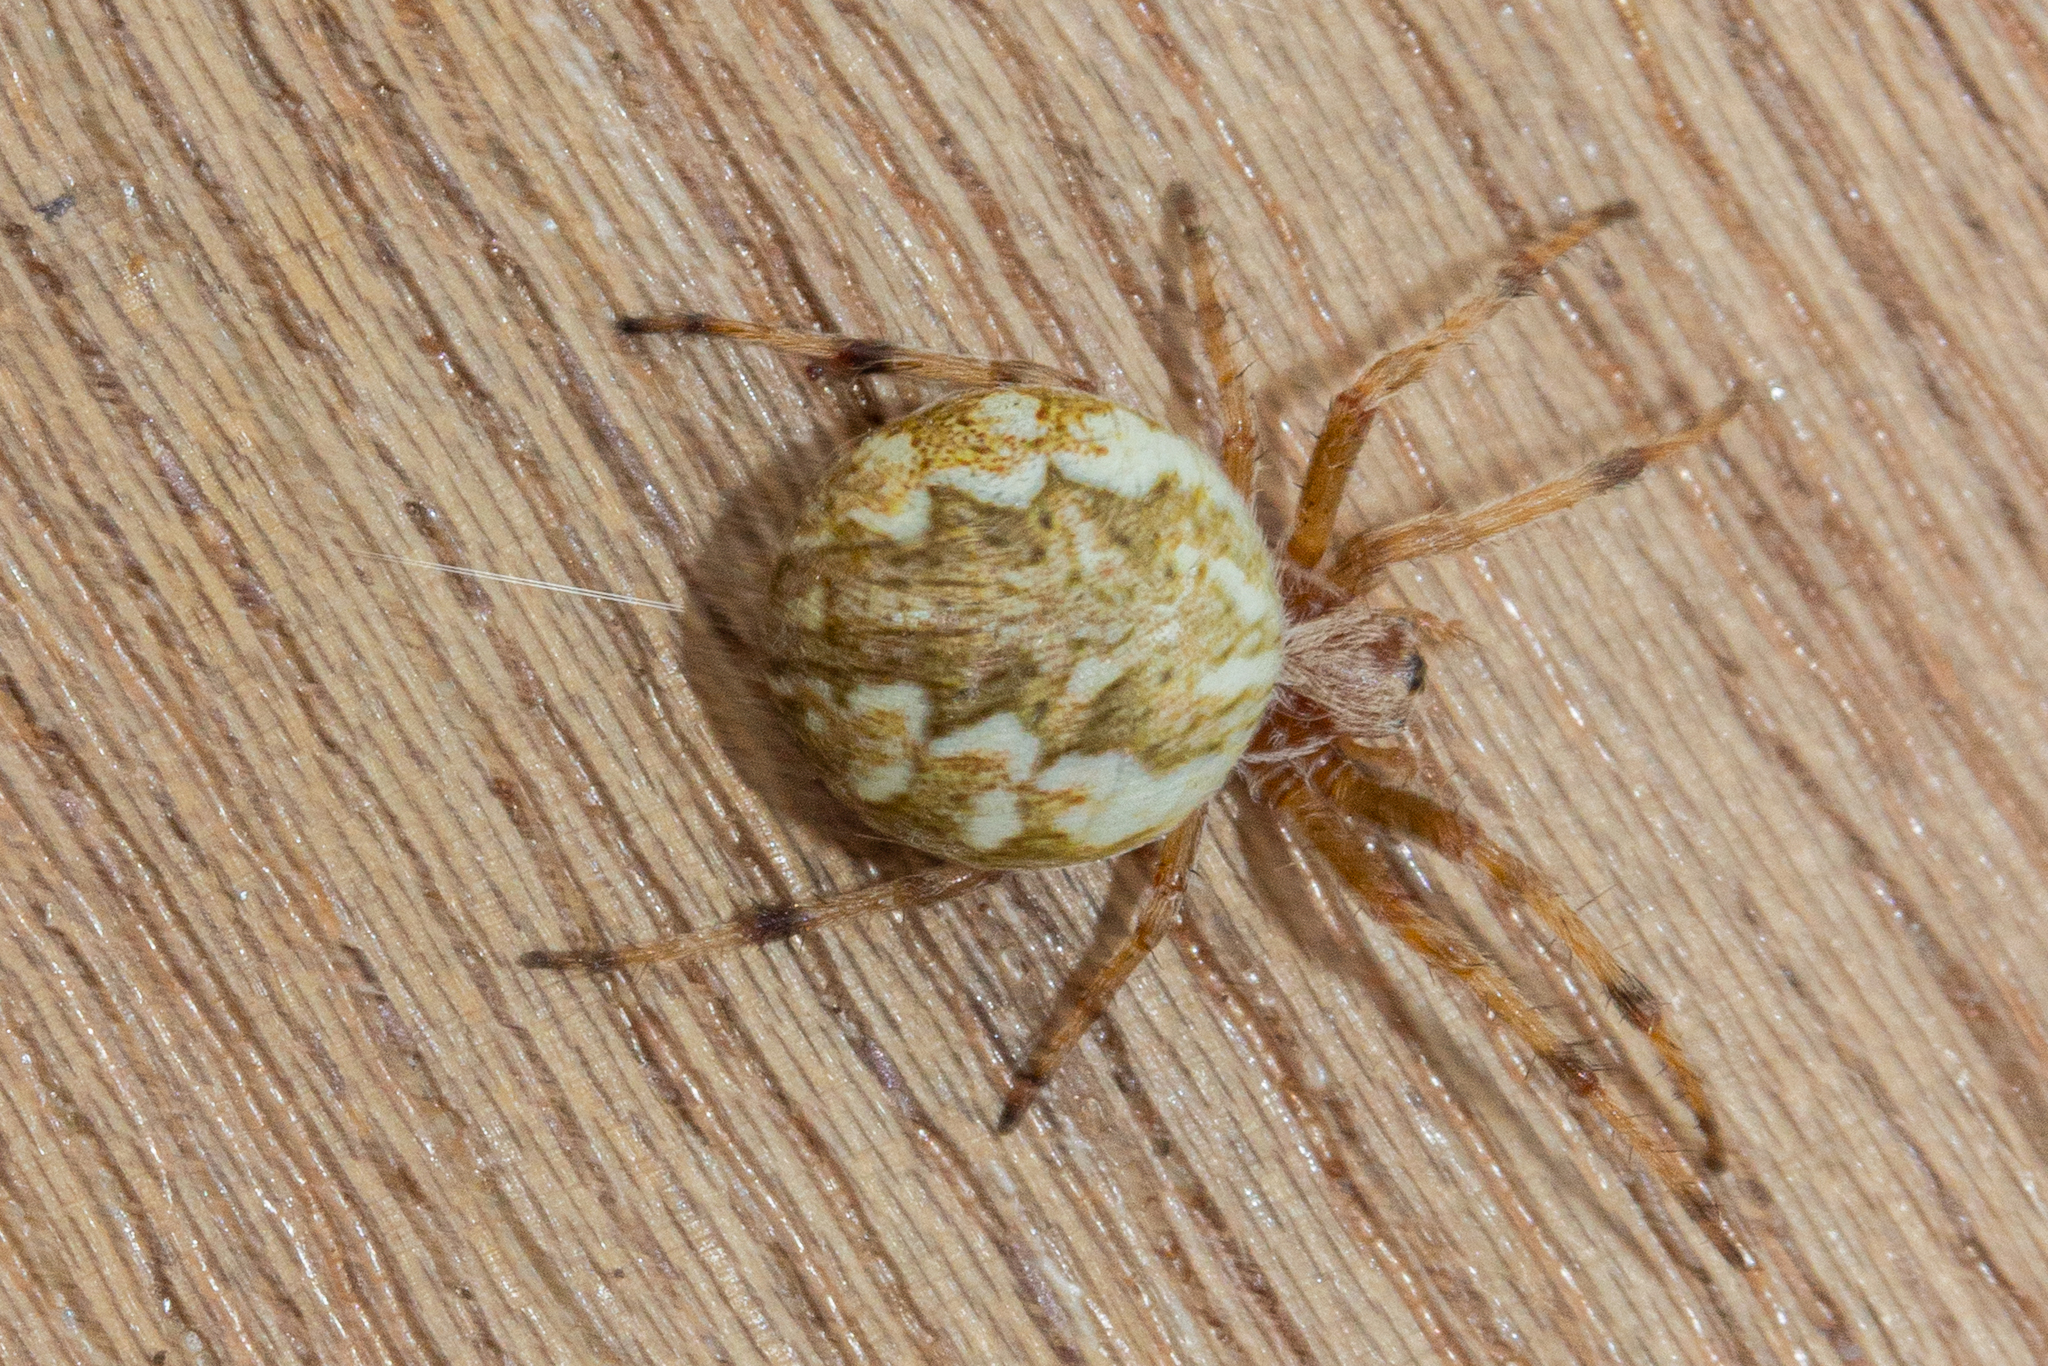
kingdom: Animalia
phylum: Arthropoda
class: Arachnida
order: Araneae
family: Araneidae
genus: Salsa
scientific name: Salsa fuliginata
